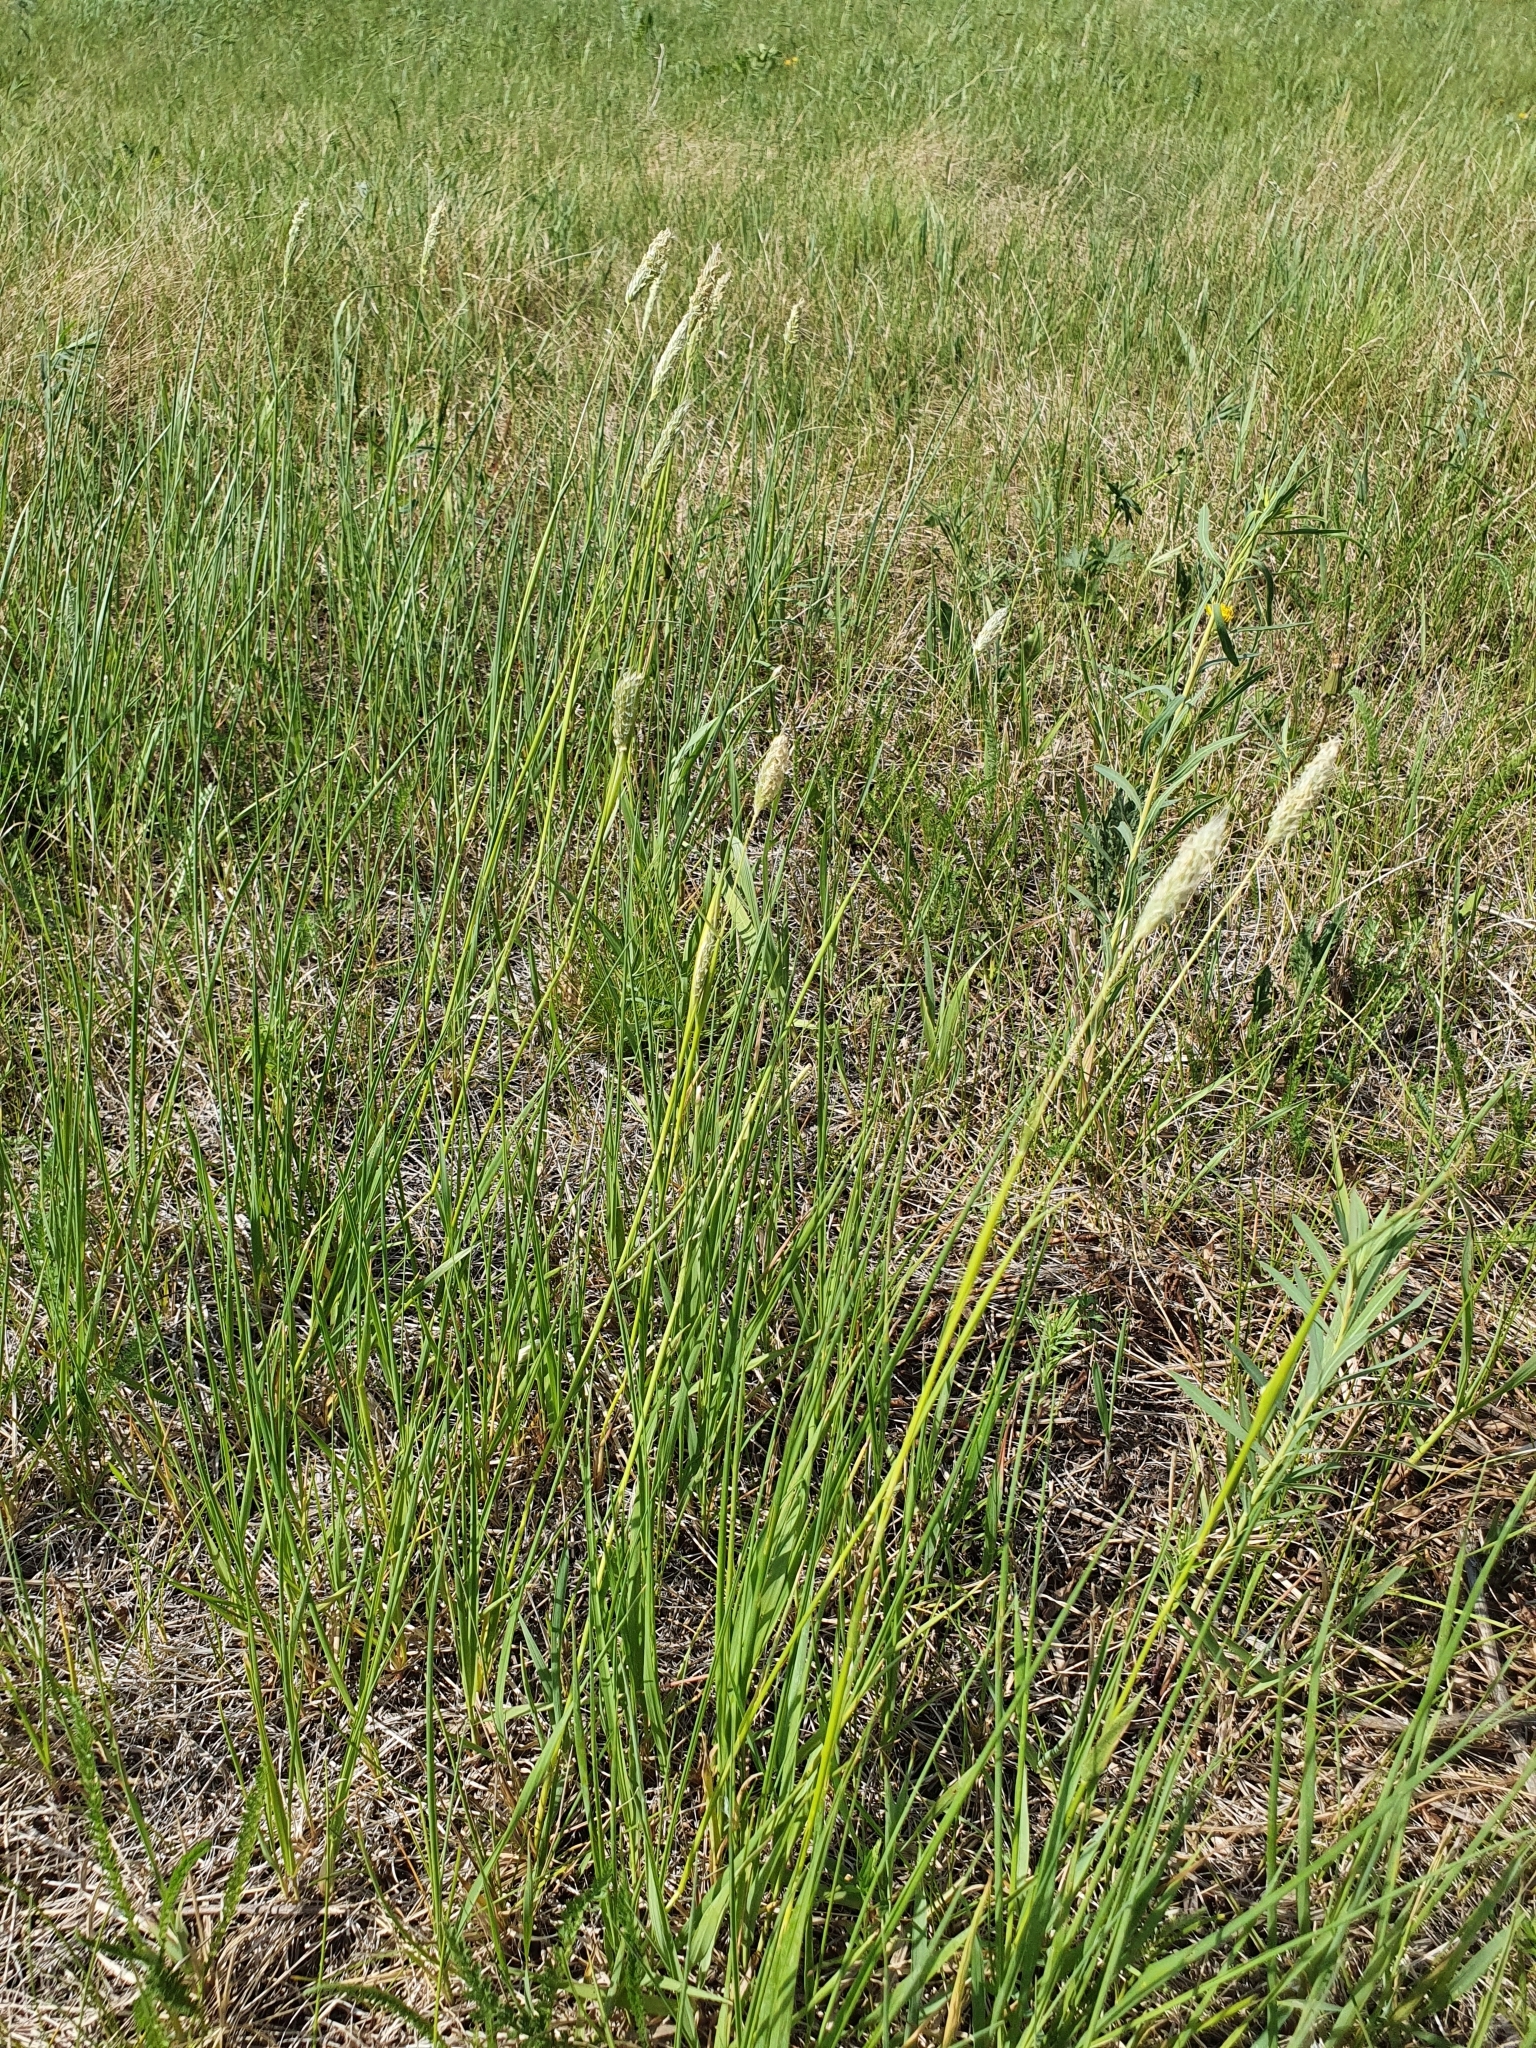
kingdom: Plantae
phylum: Tracheophyta
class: Liliopsida
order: Poales
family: Poaceae
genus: Alopecurus
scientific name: Alopecurus pratensis
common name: Meadow foxtail
